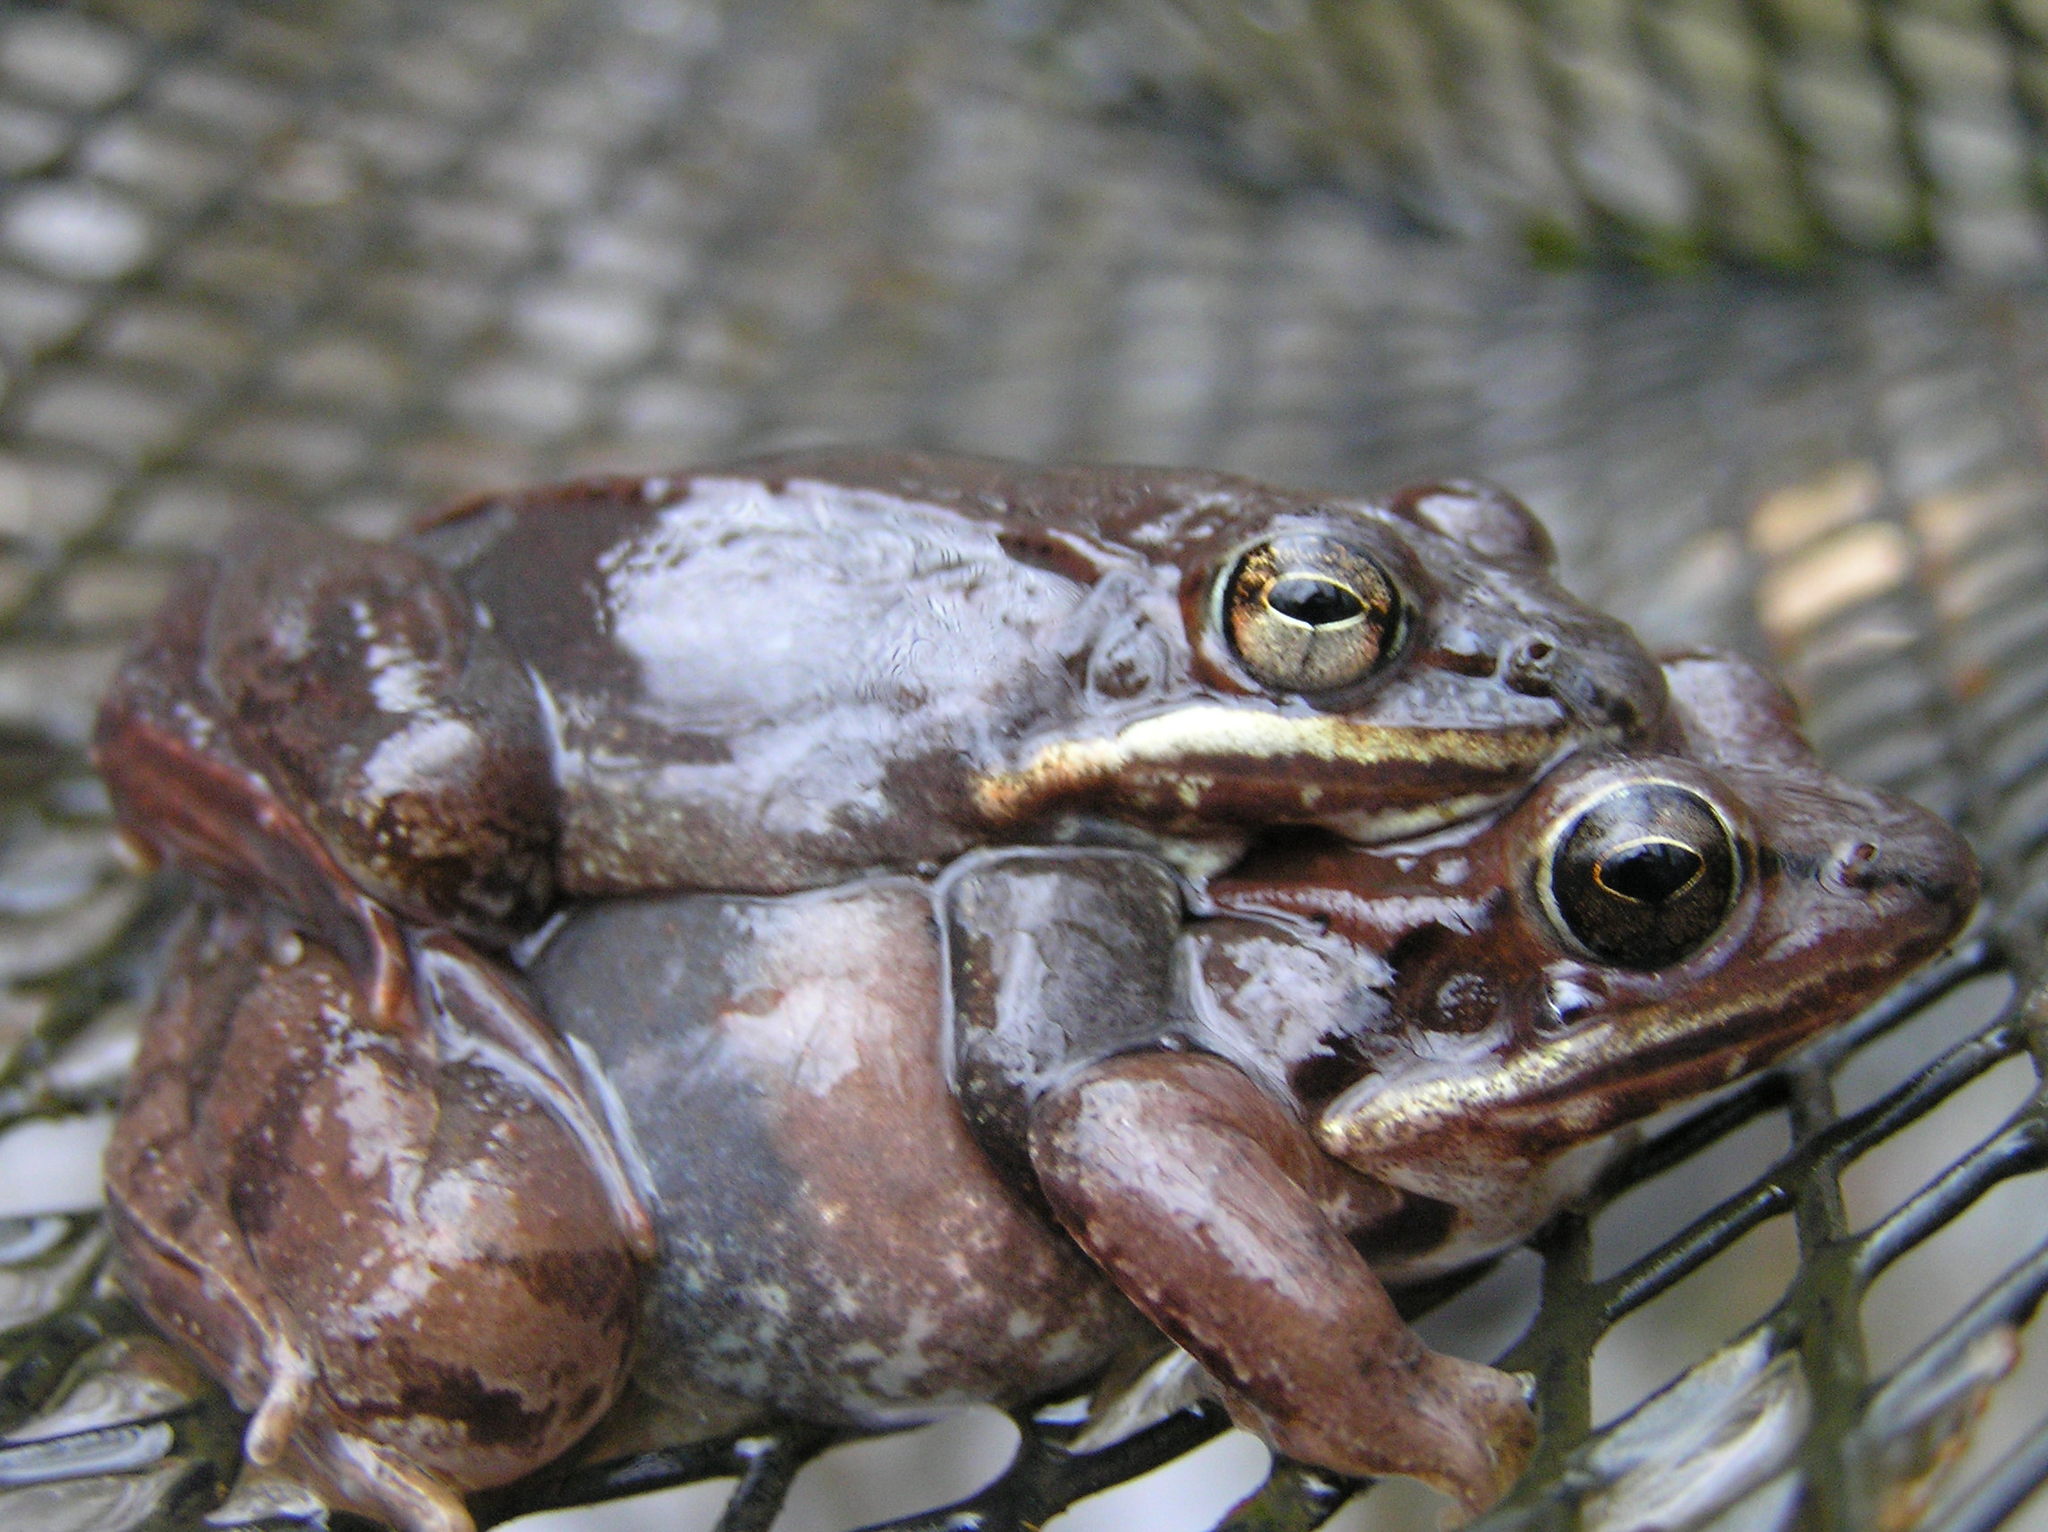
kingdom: Animalia
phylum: Chordata
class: Amphibia
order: Anura
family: Ranidae
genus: Lithobates
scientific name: Lithobates sylvaticus
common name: Wood frog
